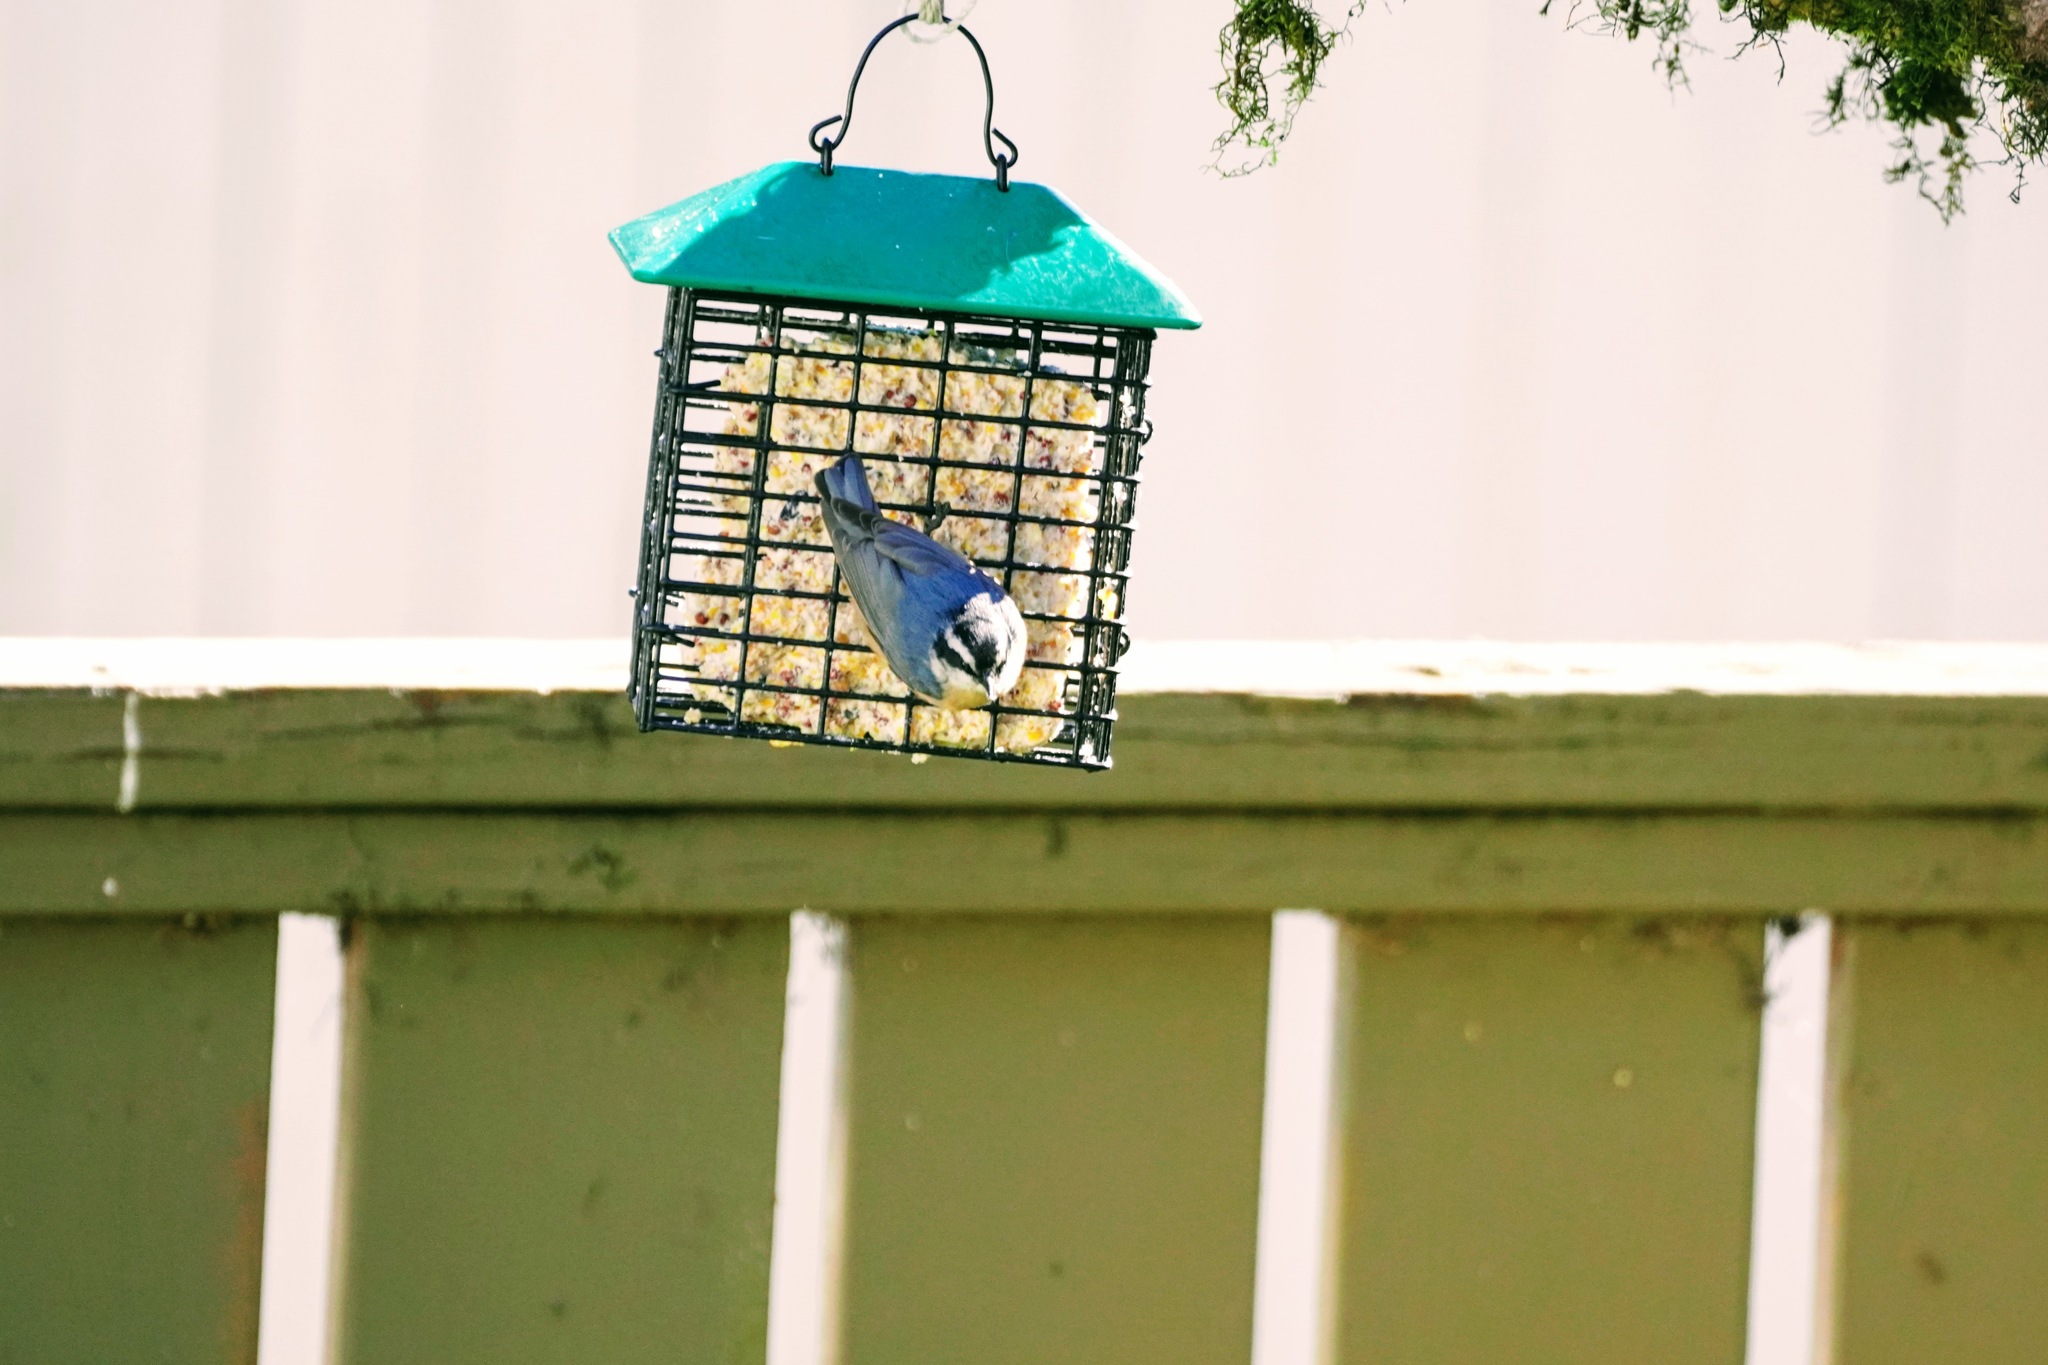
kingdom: Animalia
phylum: Chordata
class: Aves
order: Passeriformes
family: Sittidae
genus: Sitta
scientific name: Sitta canadensis
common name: Red-breasted nuthatch
